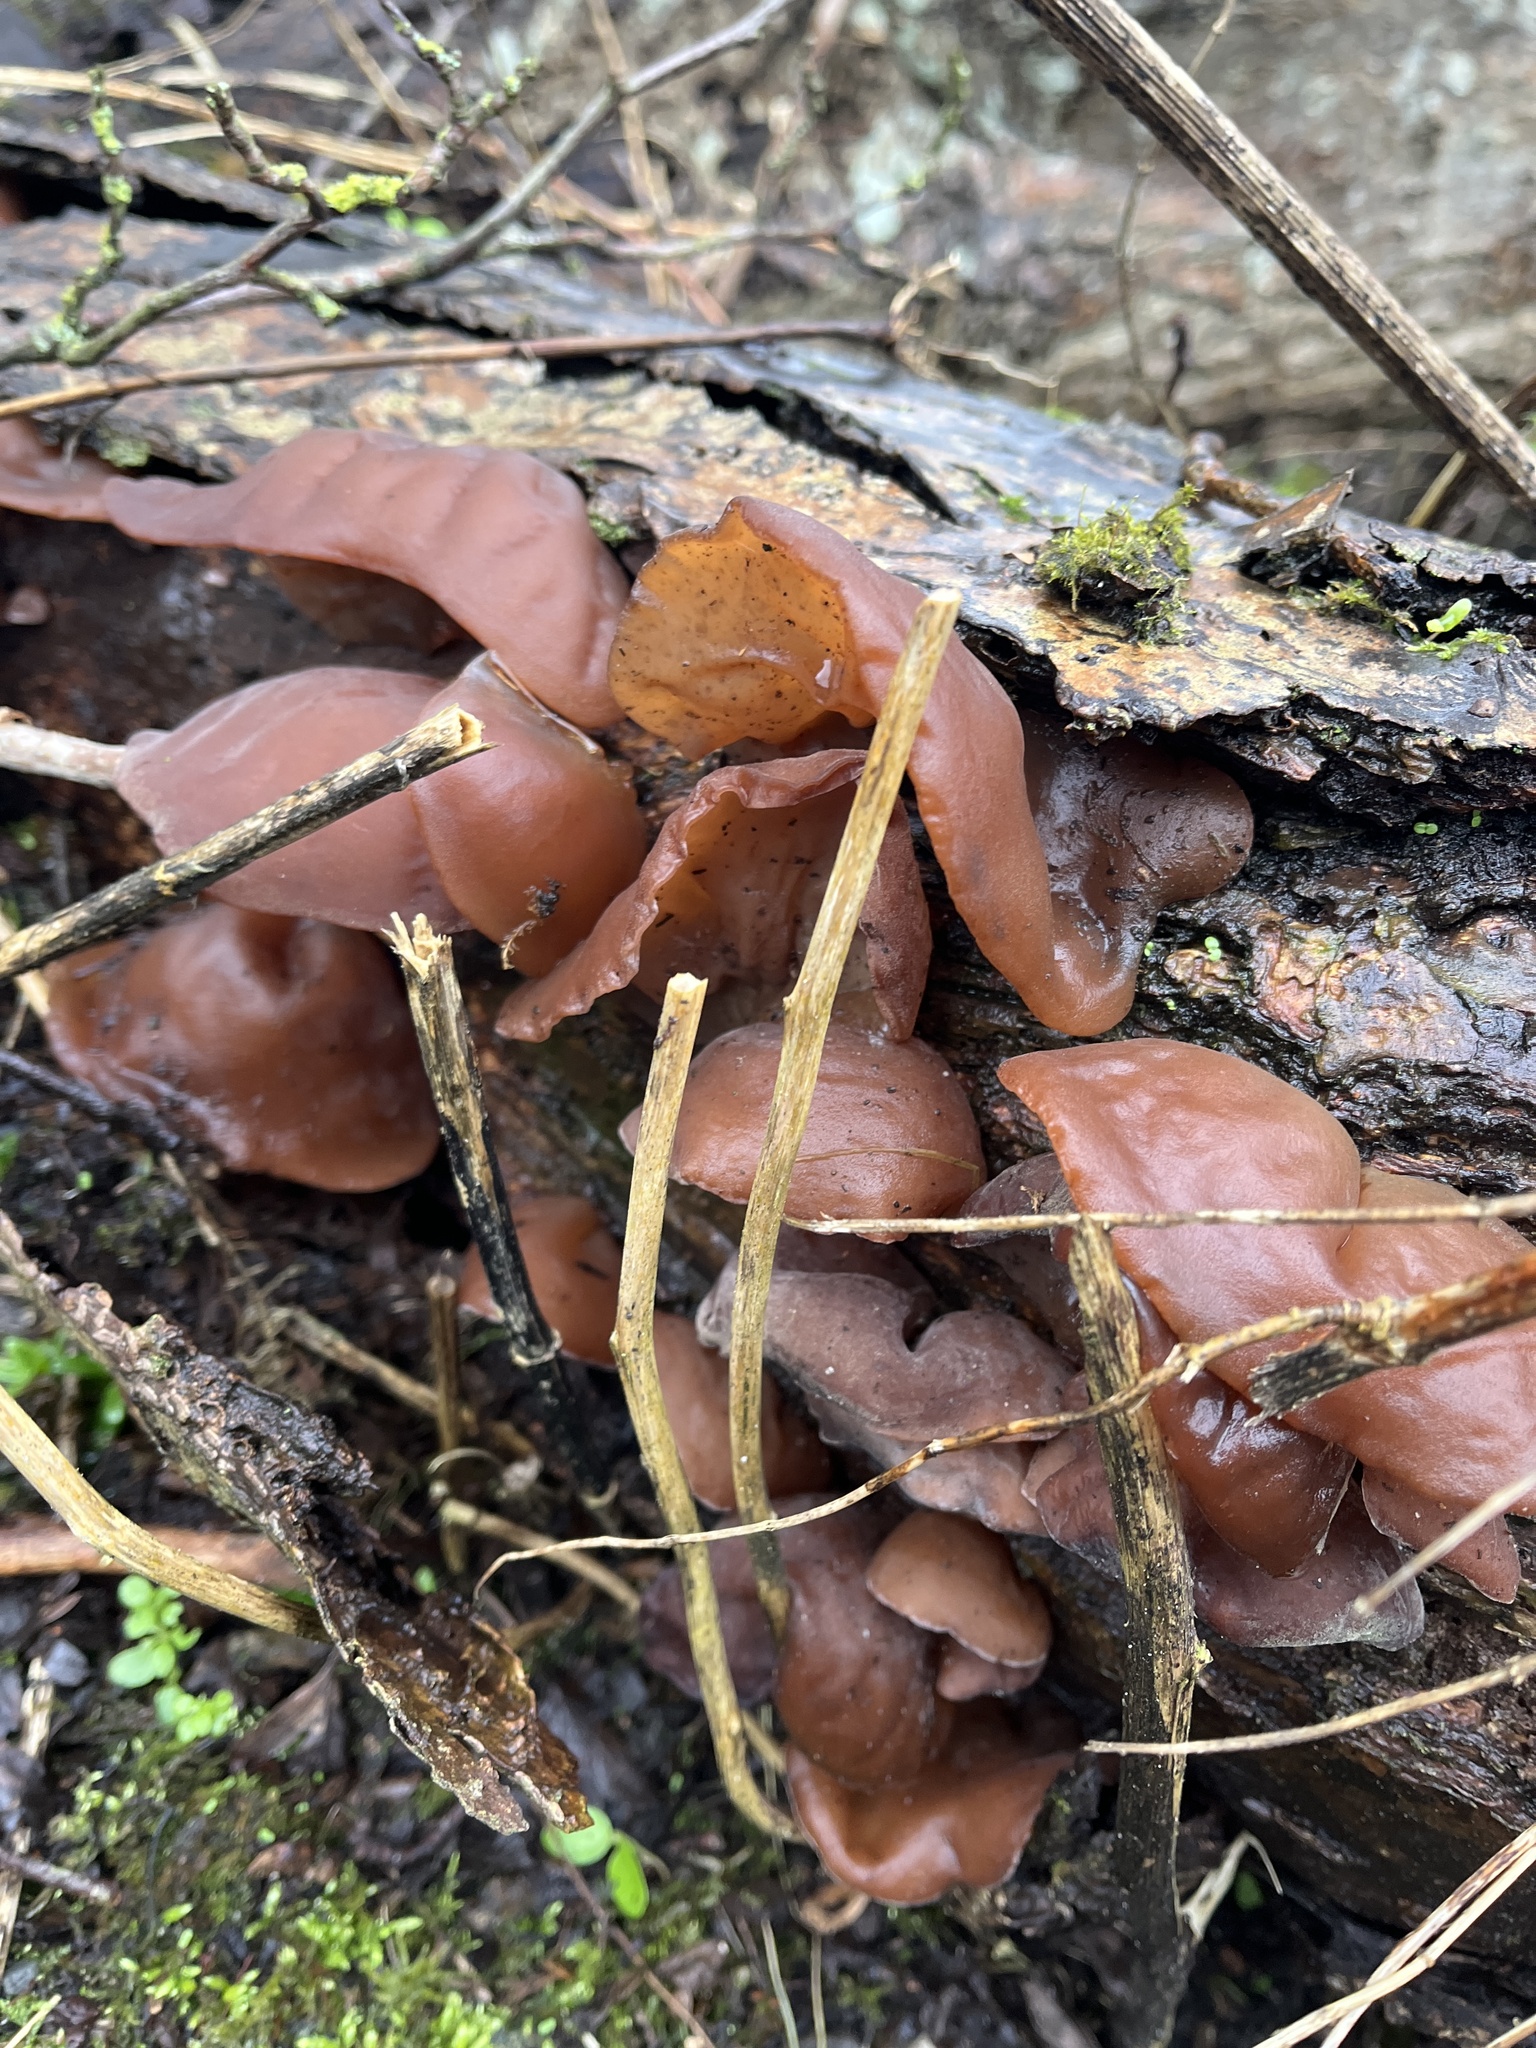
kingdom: Fungi
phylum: Basidiomycota
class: Agaricomycetes
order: Auriculariales
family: Auriculariaceae
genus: Auricularia
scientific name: Auricularia auricula-judae
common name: Jelly ear
